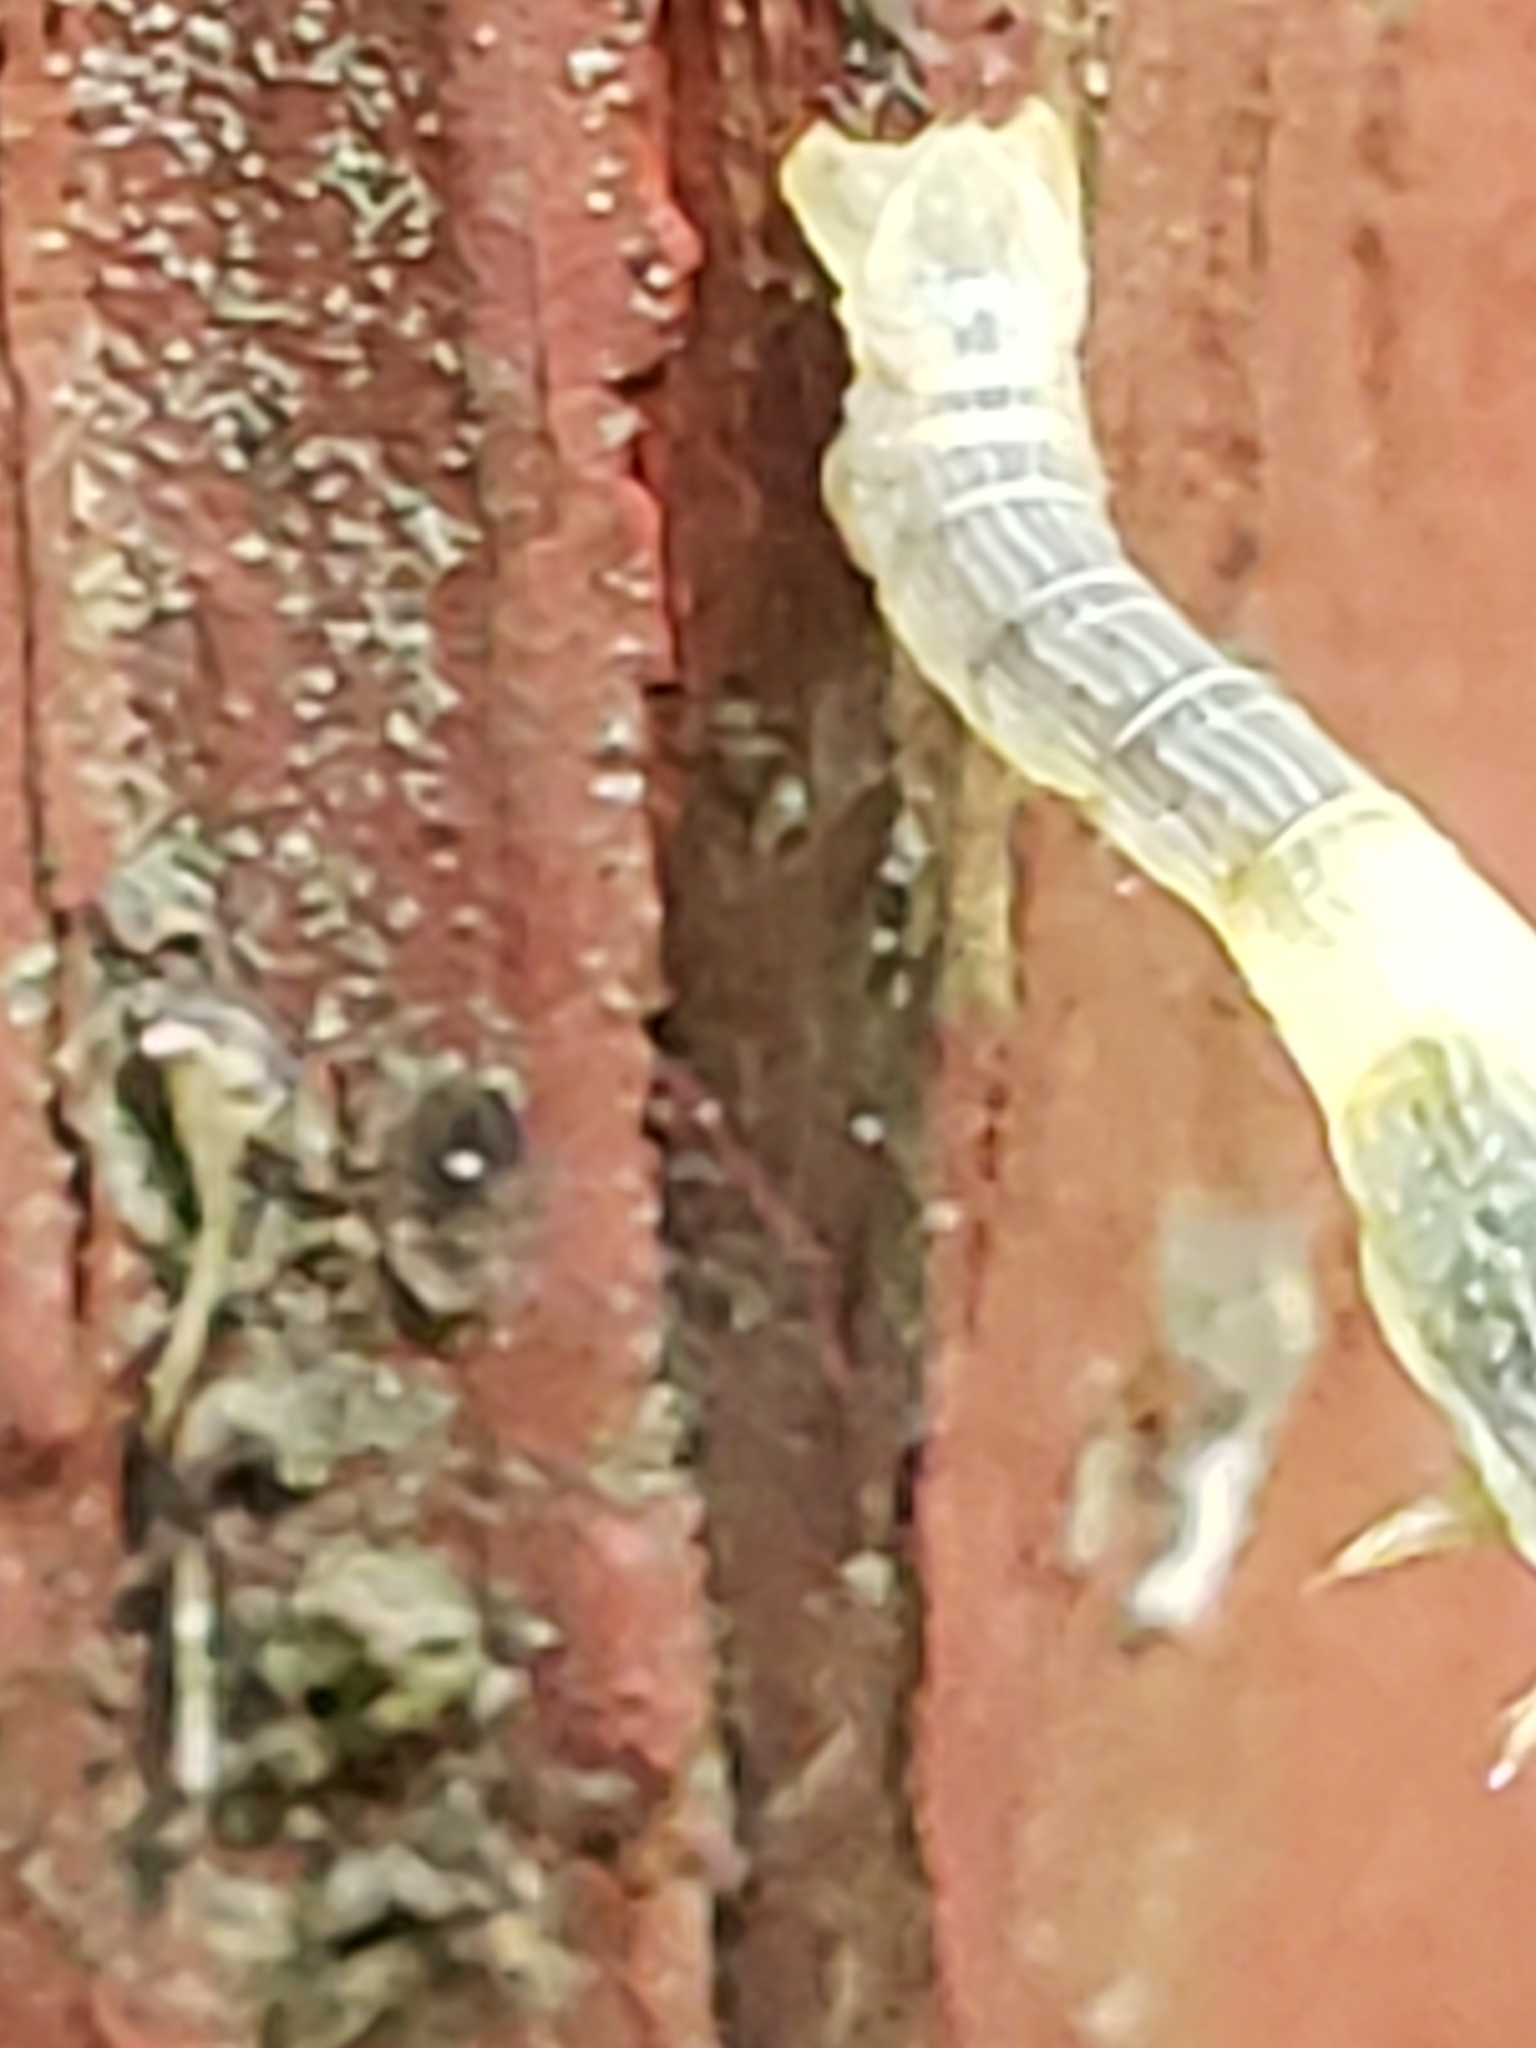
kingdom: Animalia
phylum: Arthropoda
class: Insecta
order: Lepidoptera
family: Geometridae
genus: Epimecis
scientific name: Epimecis hortaria
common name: Tulip-tree beauty
